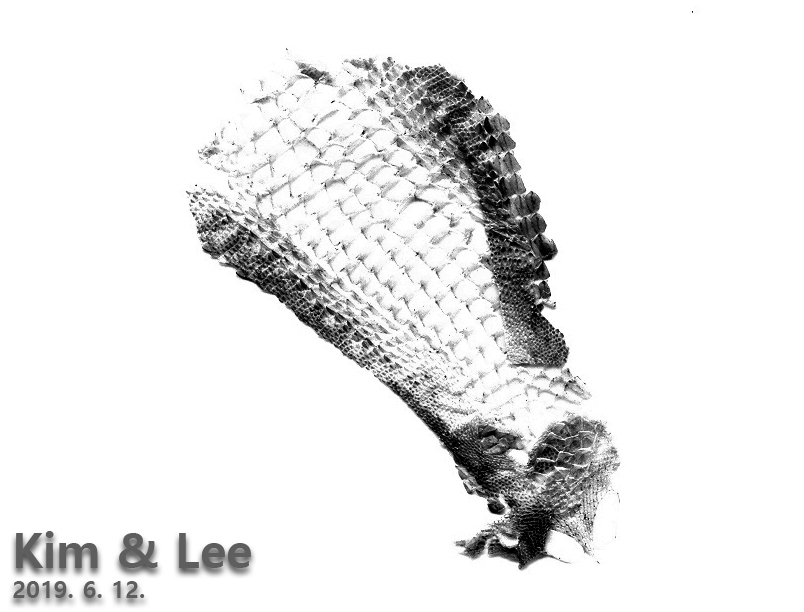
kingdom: Animalia
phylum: Chordata
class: Squamata
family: Lacertidae
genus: Takydromus
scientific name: Takydromus amurensis
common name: Amur grass lizard
